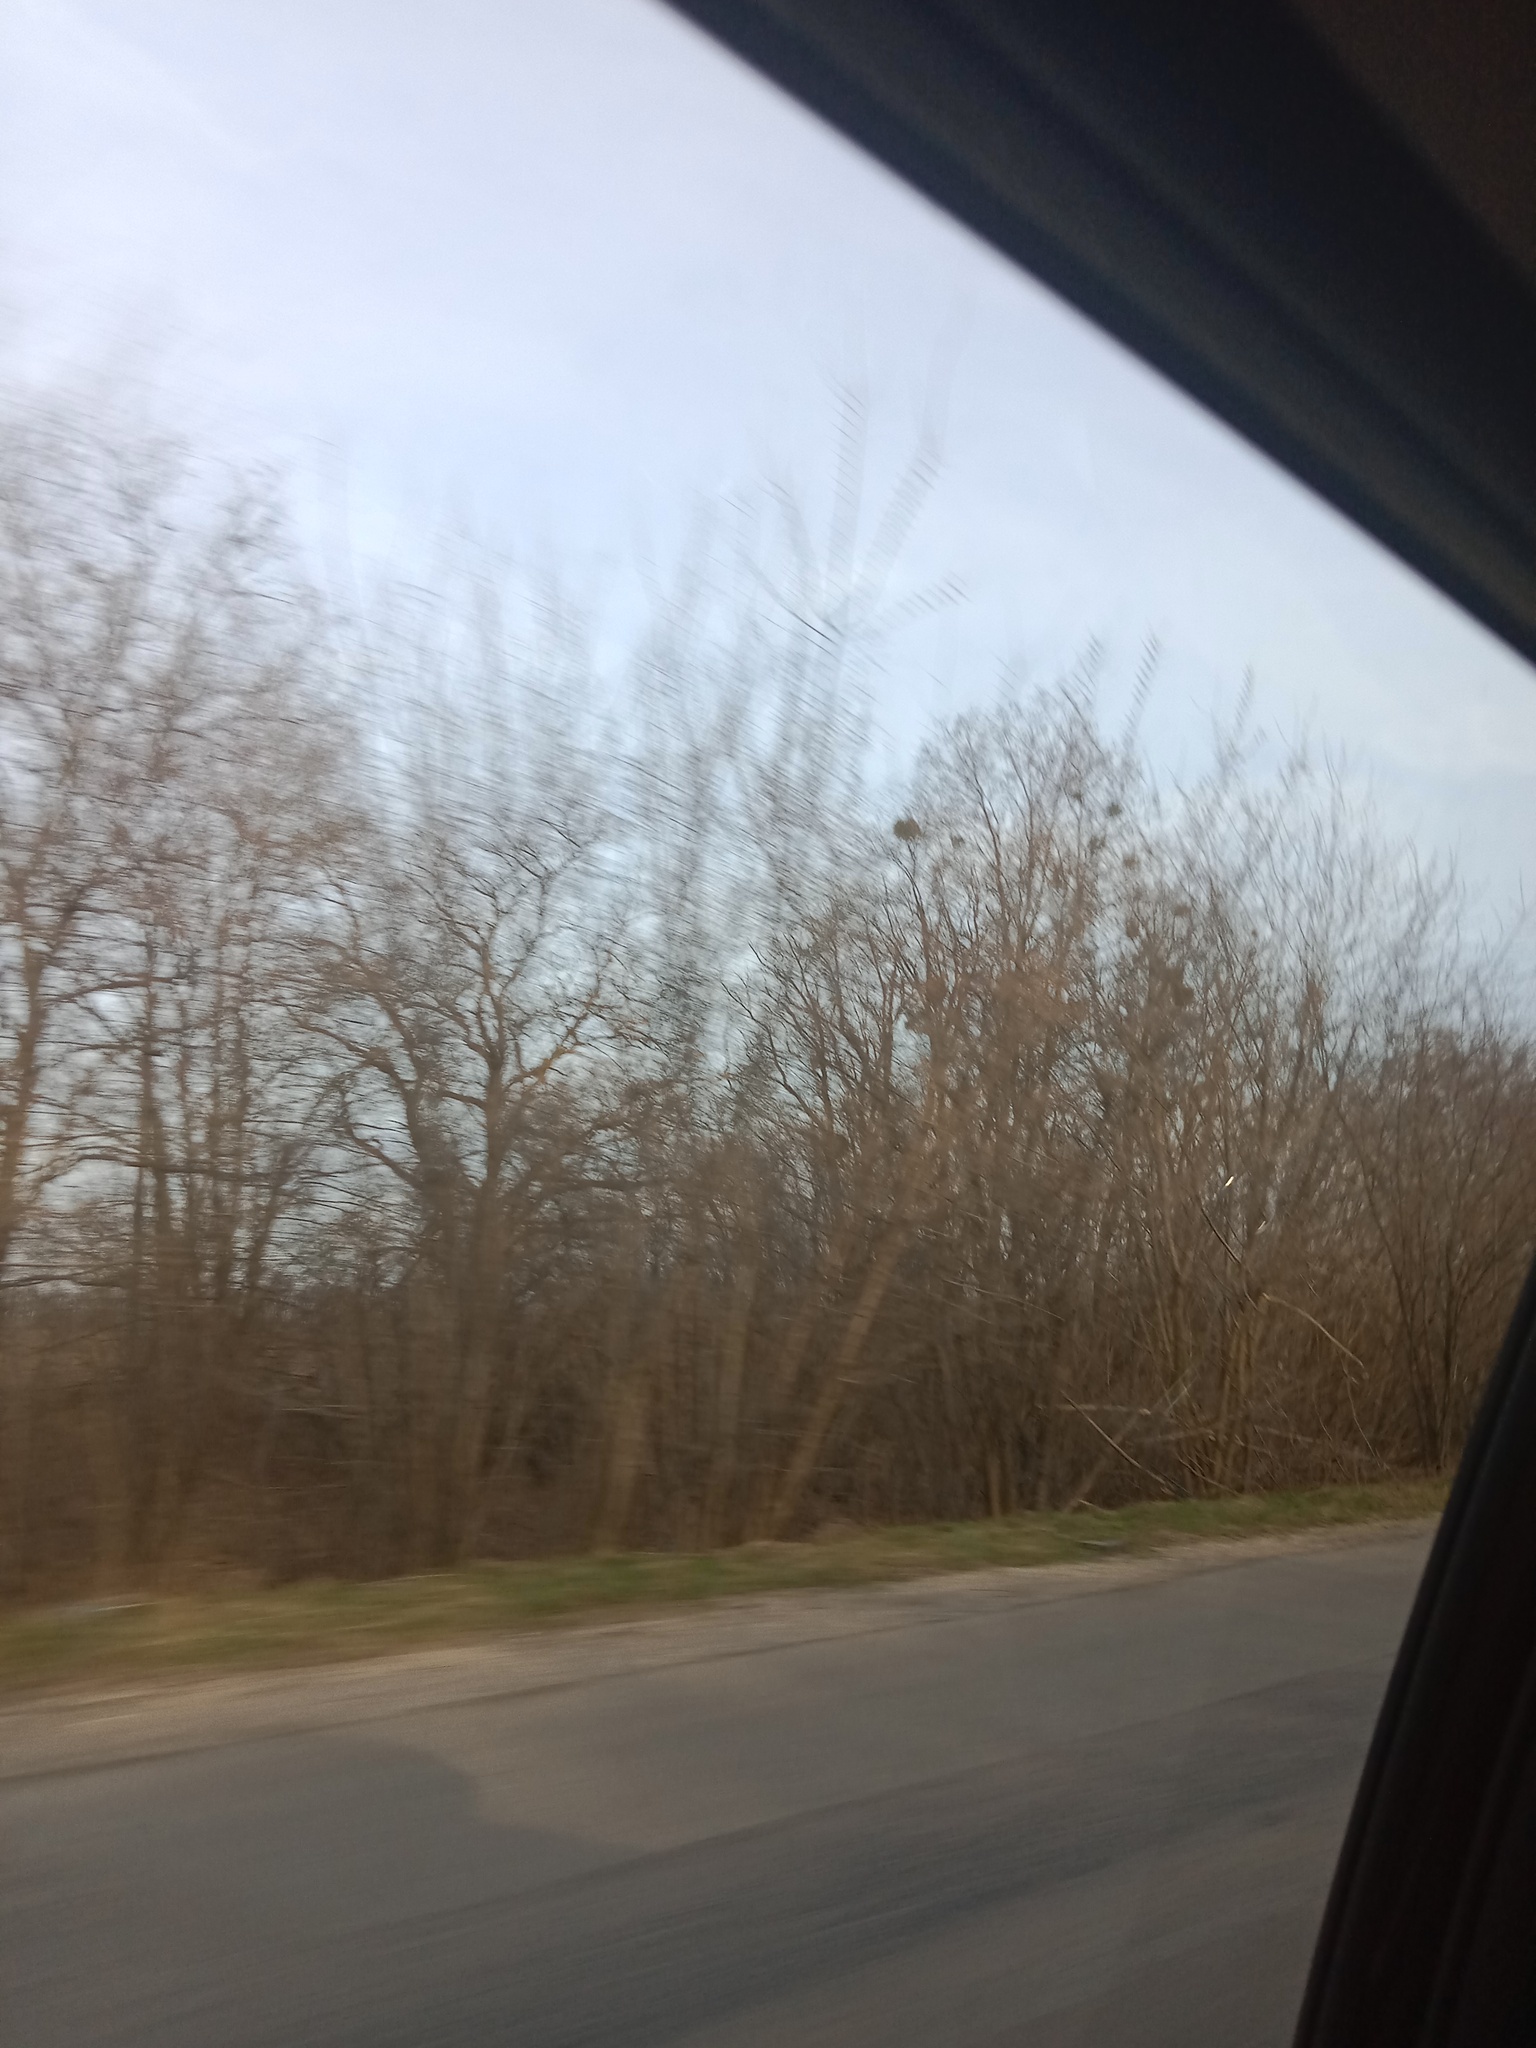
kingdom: Plantae
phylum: Tracheophyta
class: Magnoliopsida
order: Santalales
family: Viscaceae
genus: Viscum
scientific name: Viscum album
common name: Mistletoe
